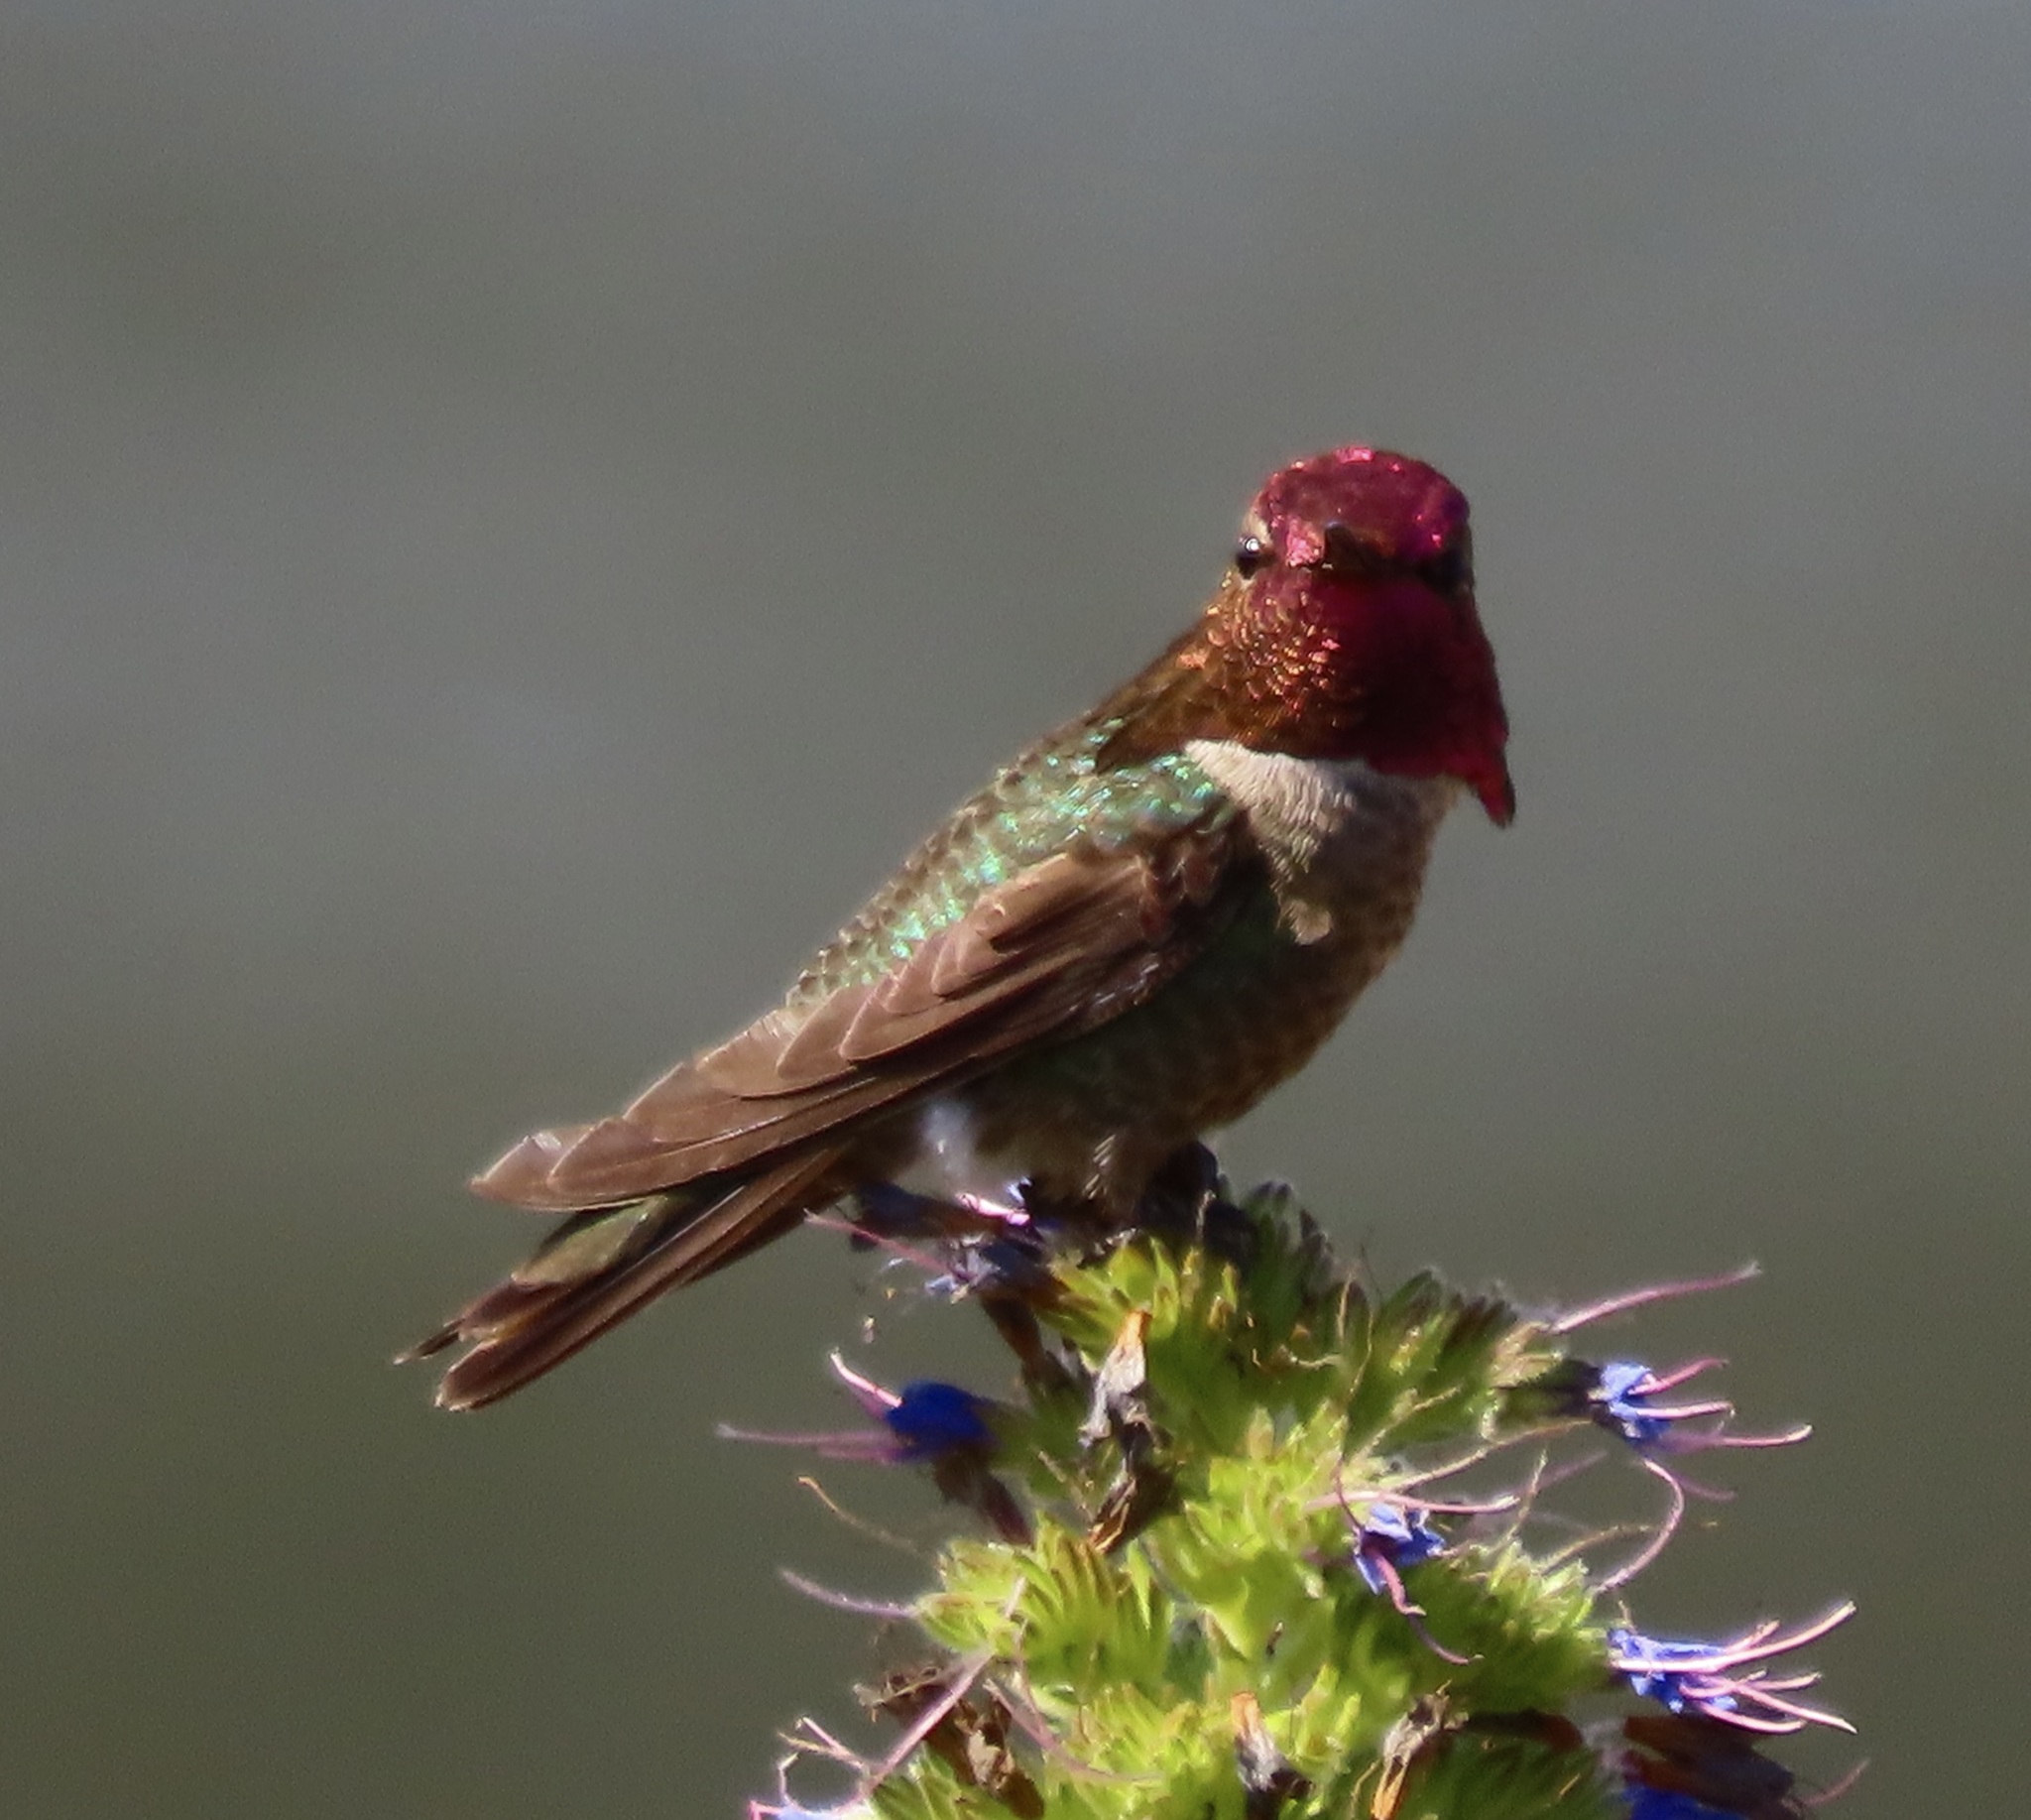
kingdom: Animalia
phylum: Chordata
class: Aves
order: Apodiformes
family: Trochilidae
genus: Calypte
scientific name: Calypte anna
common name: Anna's hummingbird
